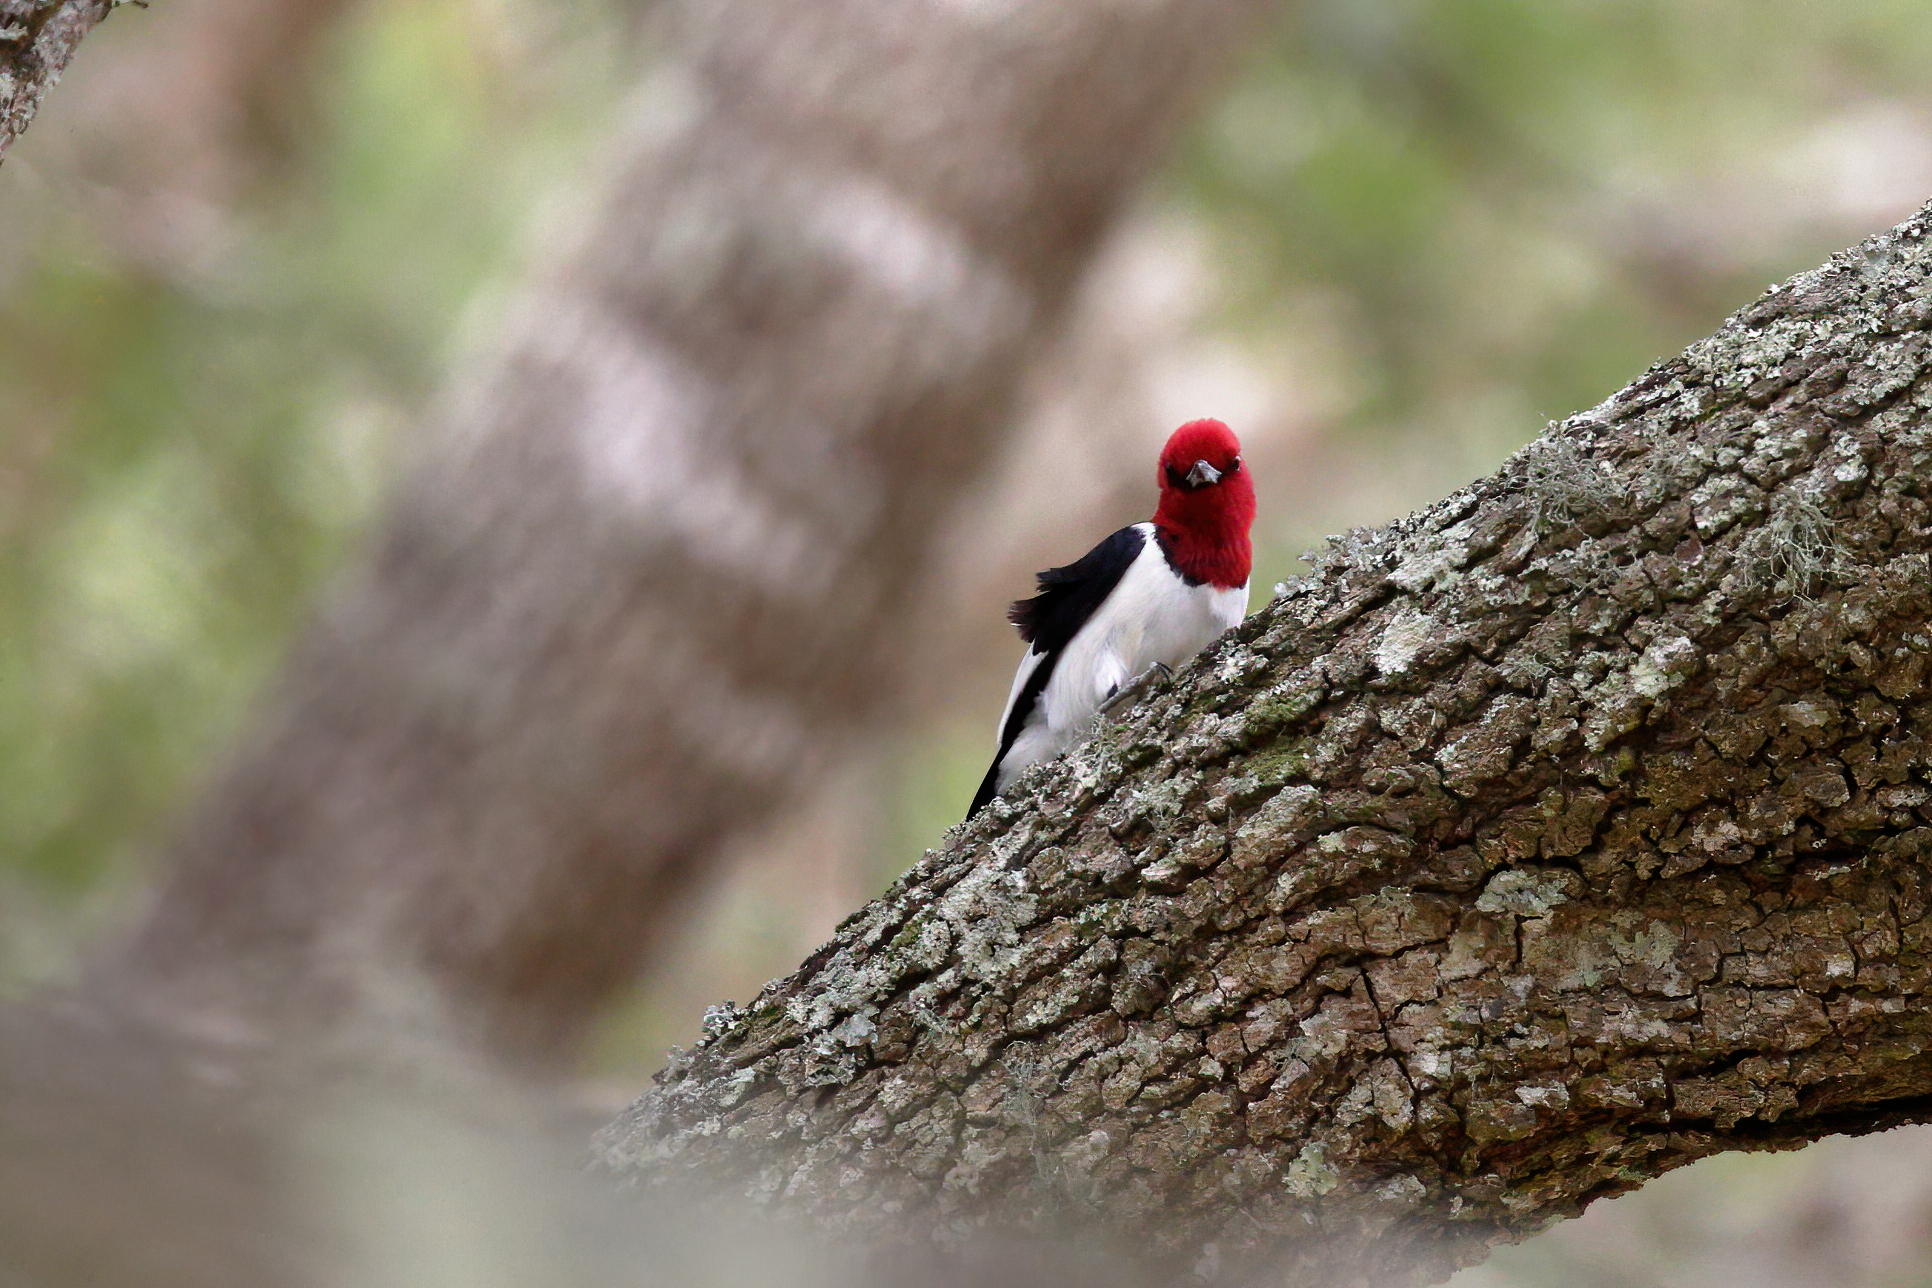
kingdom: Animalia
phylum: Chordata
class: Aves
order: Piciformes
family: Picidae
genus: Melanerpes
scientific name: Melanerpes erythrocephalus
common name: Red-headed woodpecker
